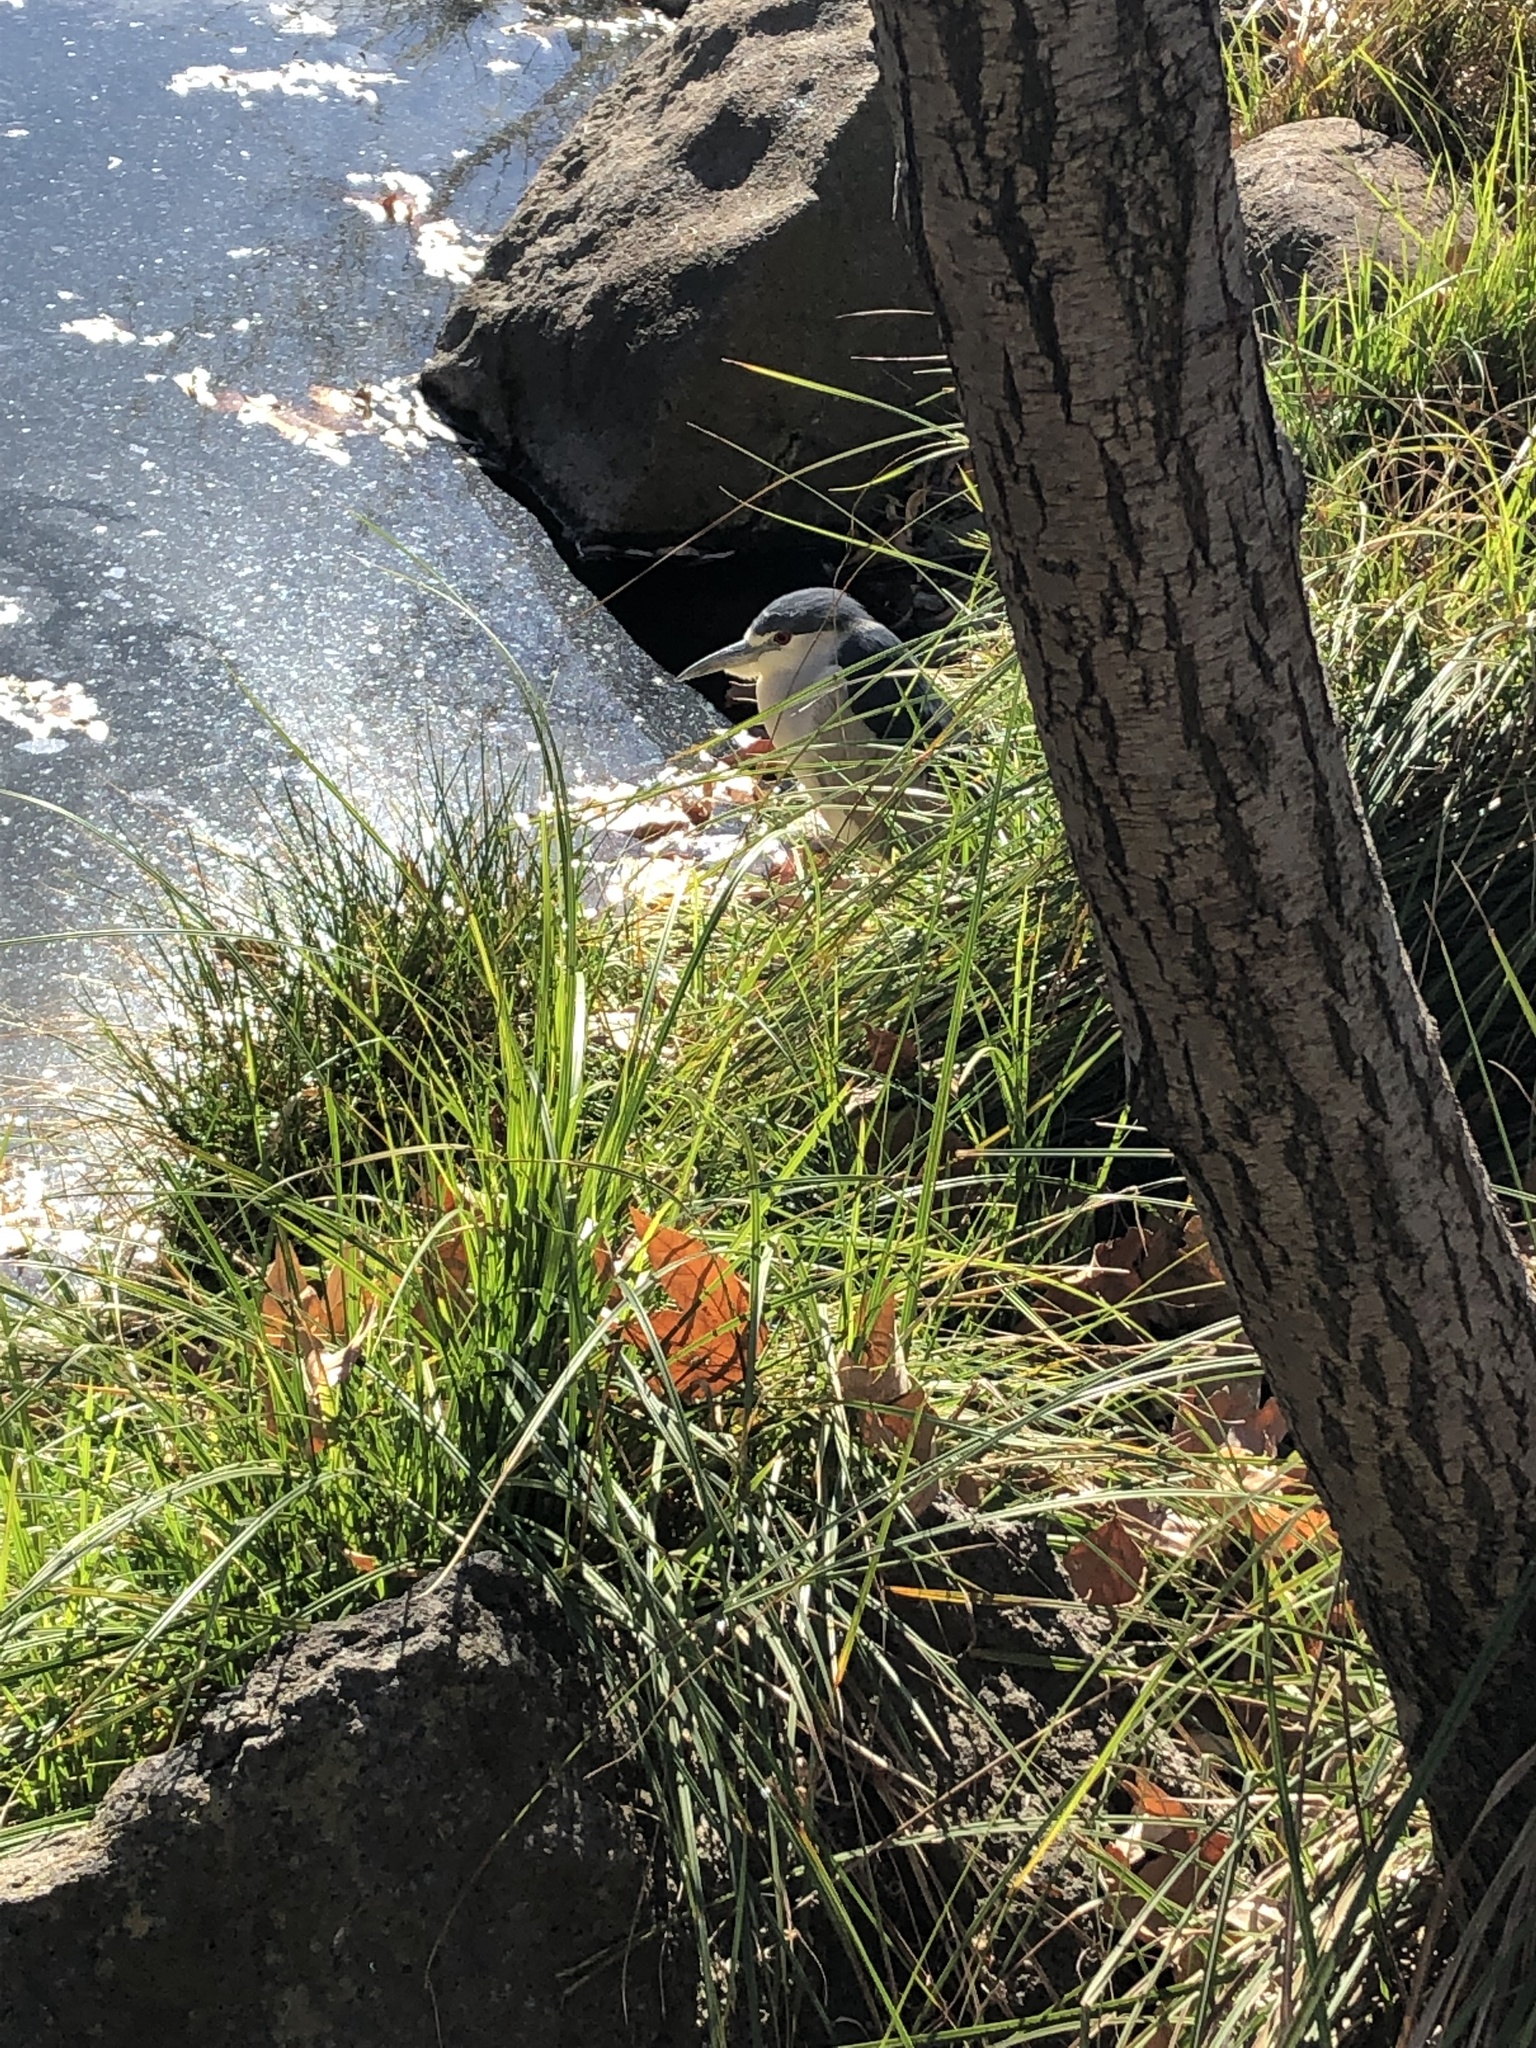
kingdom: Animalia
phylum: Chordata
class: Aves
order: Pelecaniformes
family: Ardeidae
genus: Nycticorax
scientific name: Nycticorax nycticorax
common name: Black-crowned night heron
